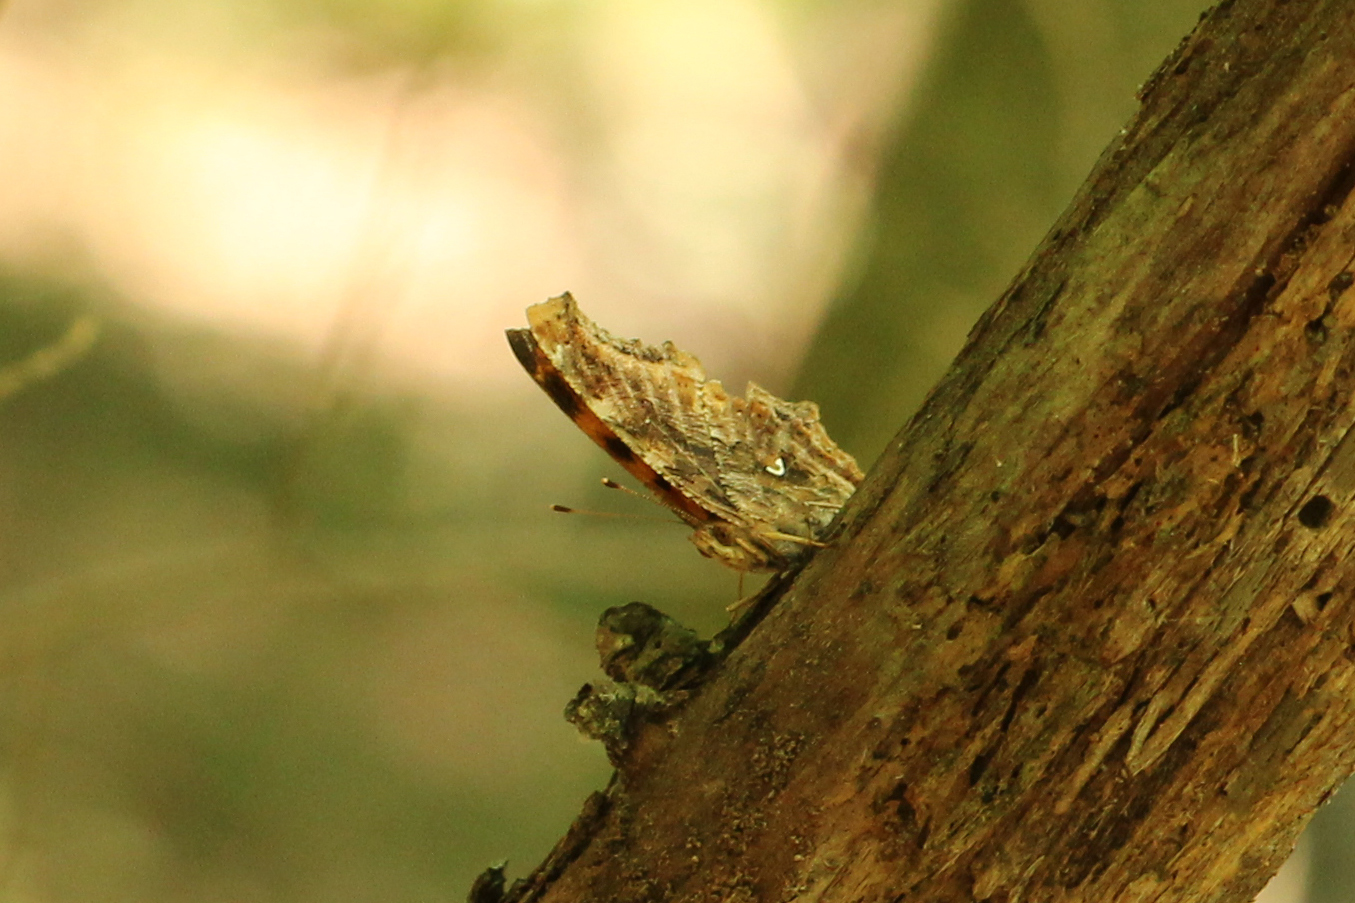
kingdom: Animalia
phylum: Arthropoda
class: Insecta
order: Lepidoptera
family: Nymphalidae
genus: Polygonia
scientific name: Polygonia comma
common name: Eastern comma
